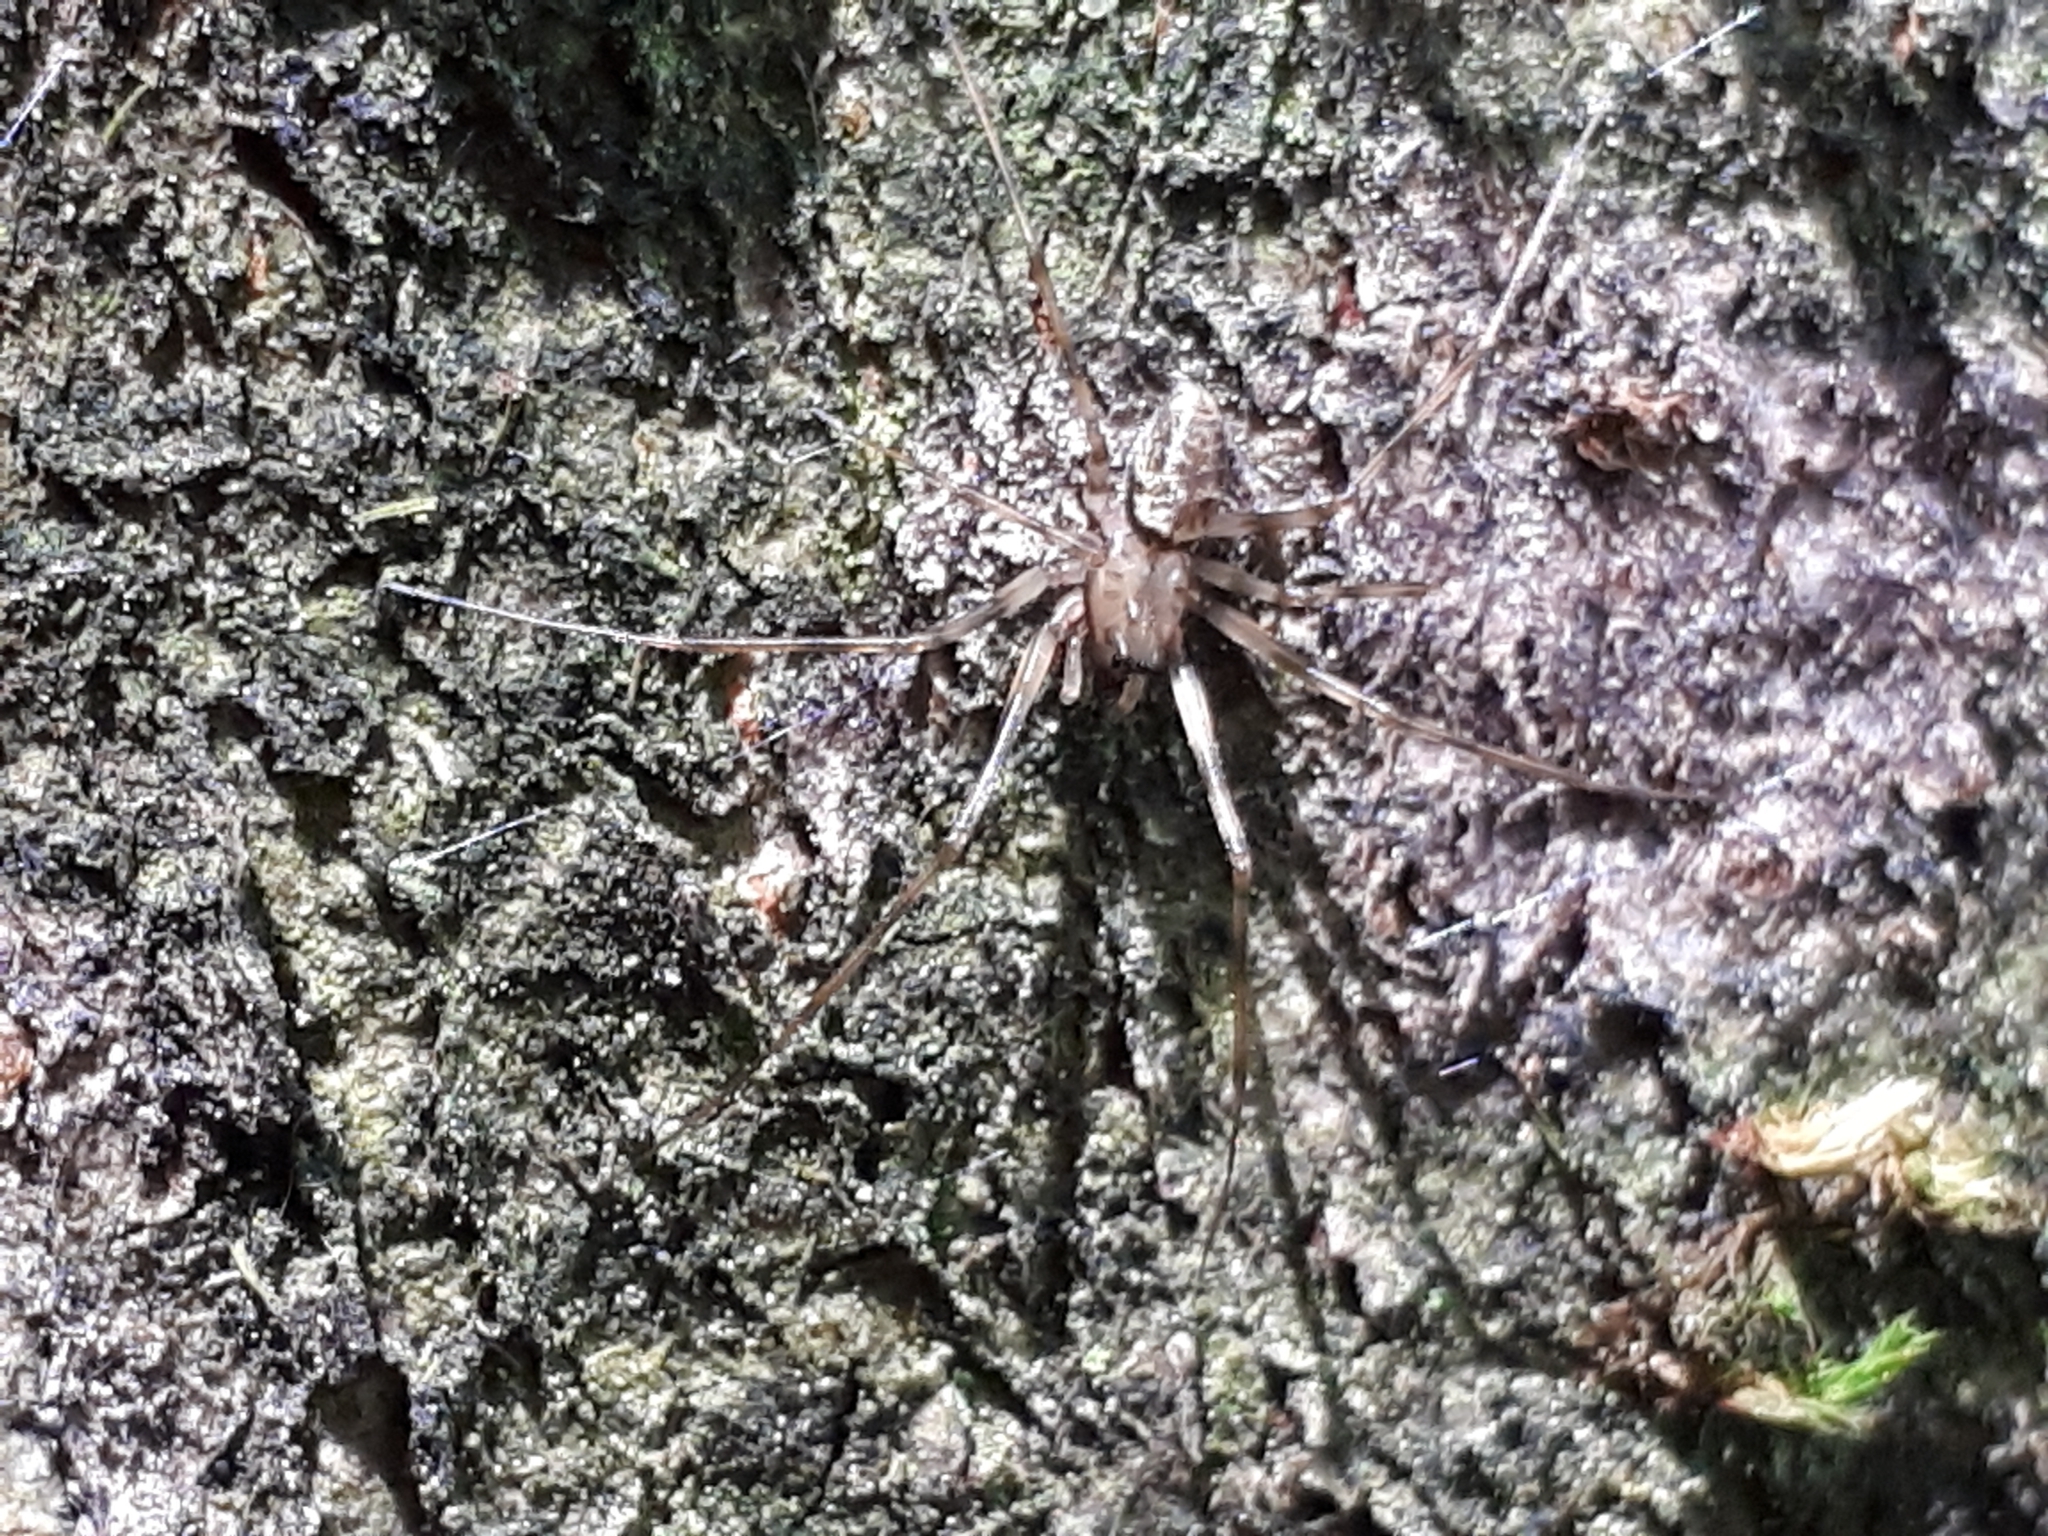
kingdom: Animalia
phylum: Arthropoda
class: Arachnida
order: Araneae
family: Linyphiidae
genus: Drapetisca
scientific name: Drapetisca socialis
